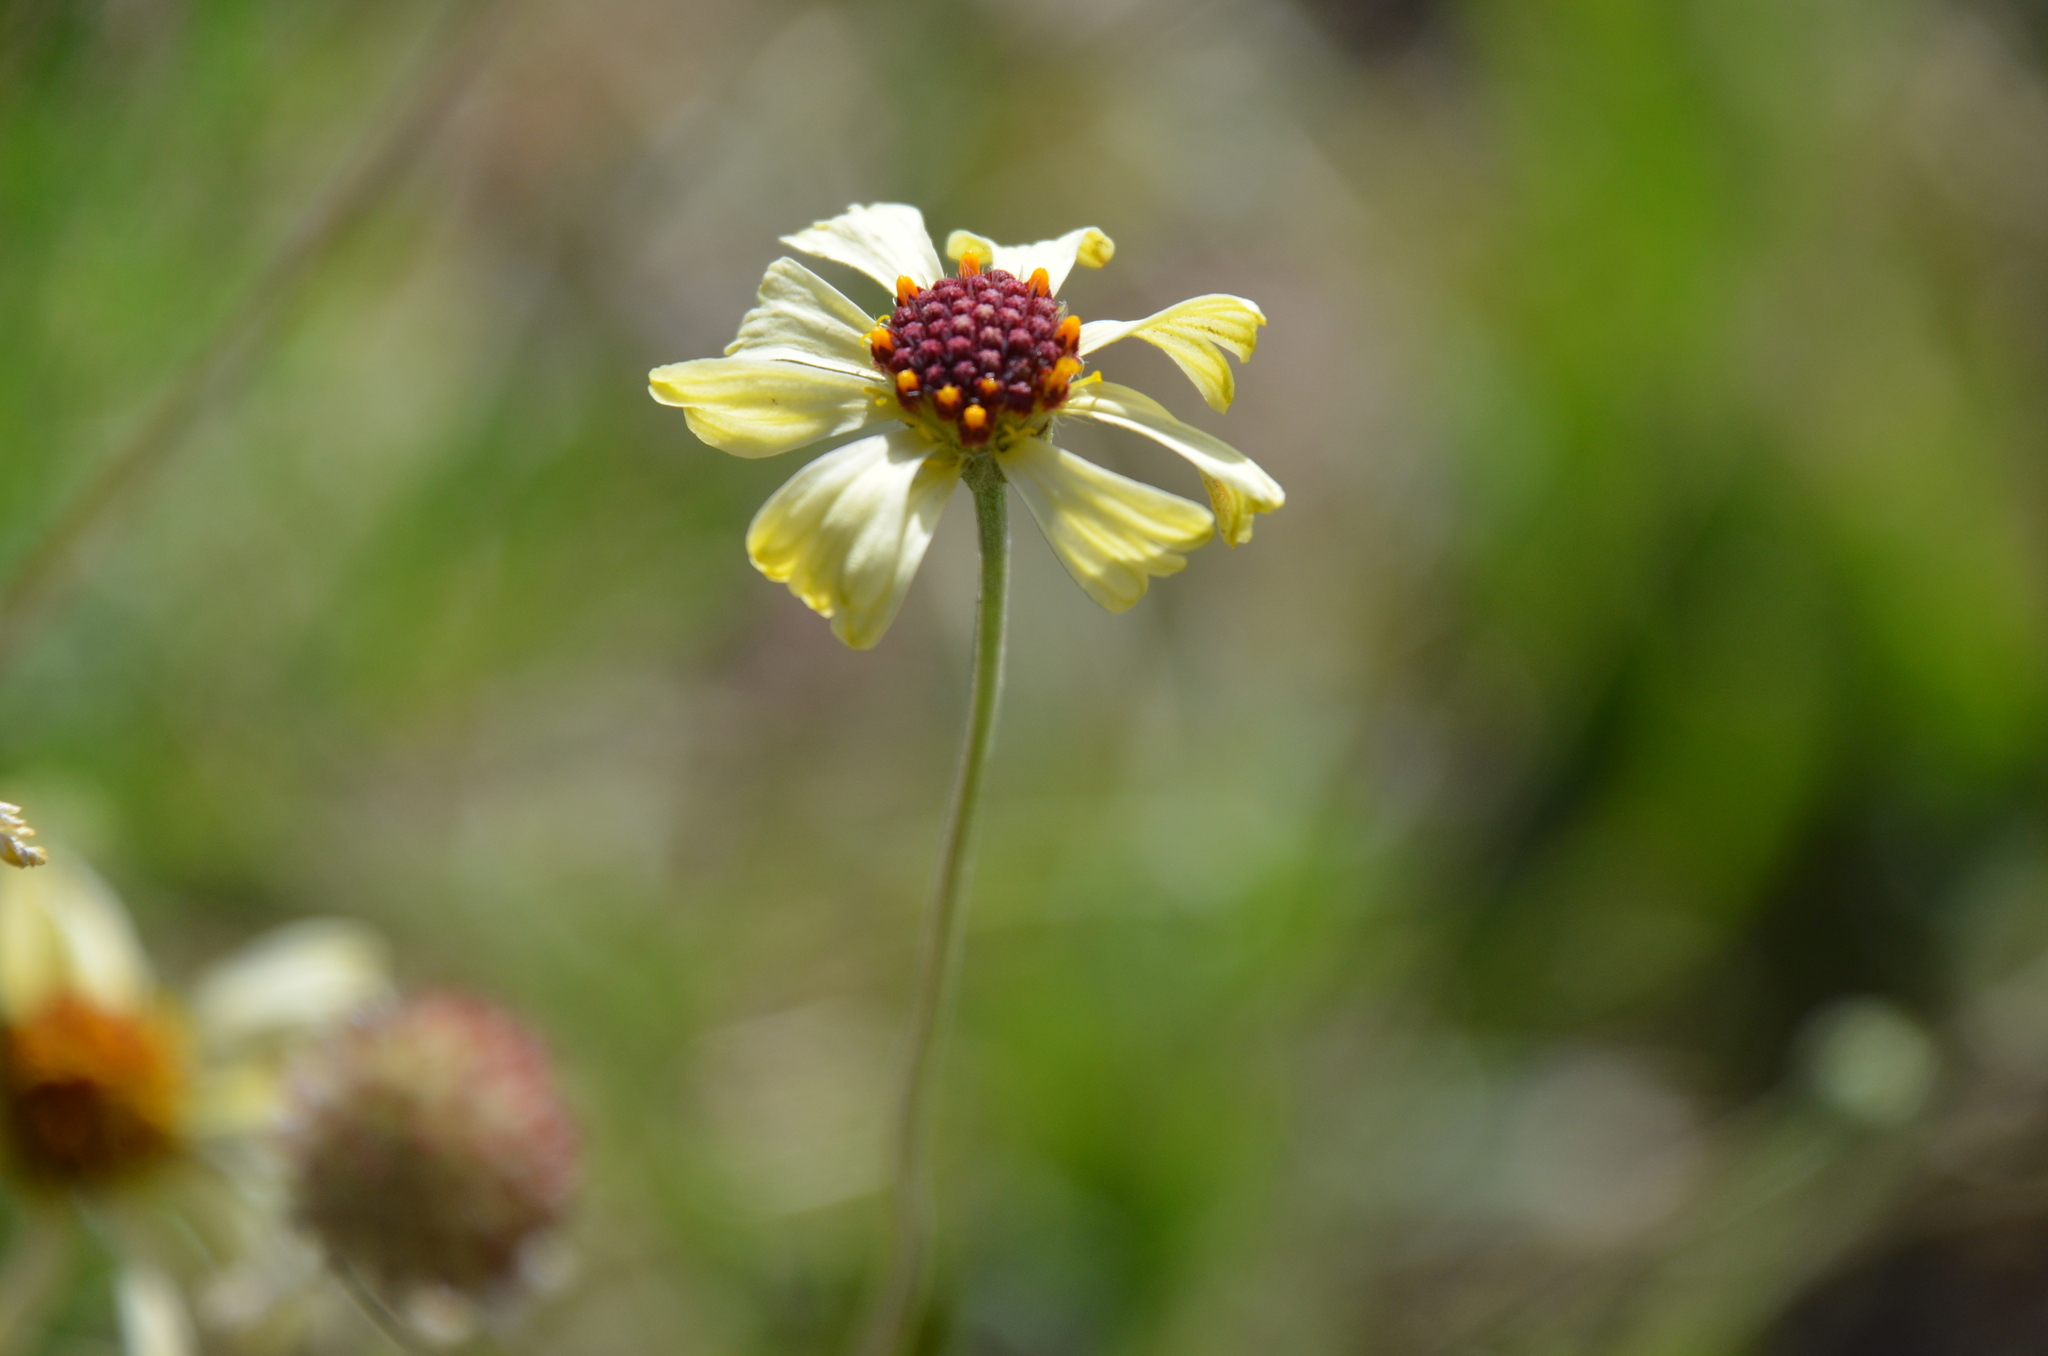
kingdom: Plantae
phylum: Tracheophyta
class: Magnoliopsida
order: Asterales
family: Asteraceae
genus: Helenium
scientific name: Helenium uniflorum
